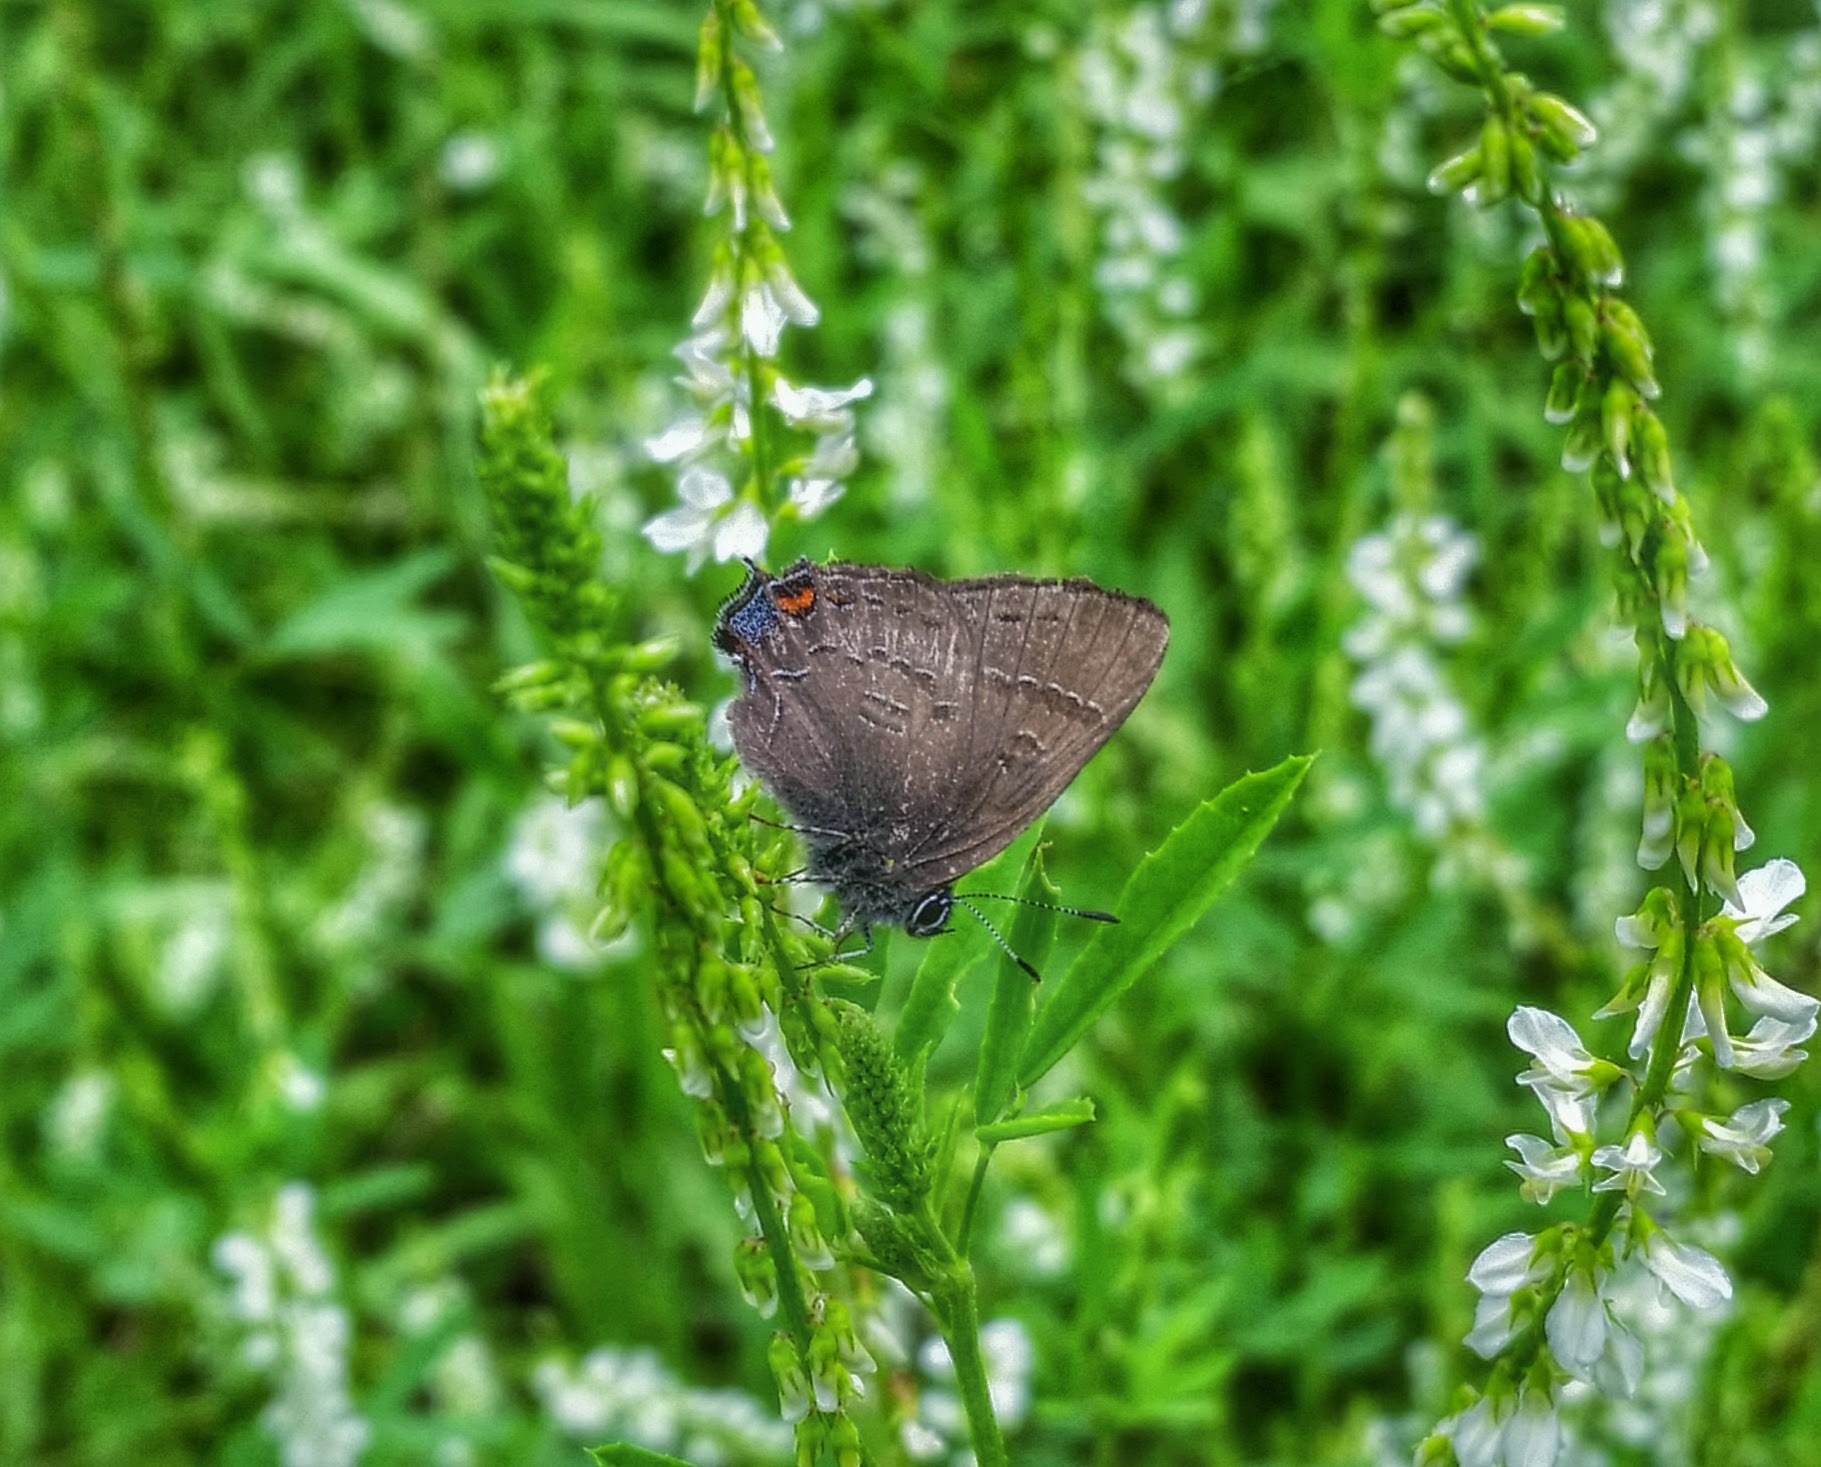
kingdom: Animalia
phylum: Arthropoda
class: Insecta
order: Lepidoptera
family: Lycaenidae
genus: Satyrium
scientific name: Satyrium calanus
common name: Banded hairstreak
